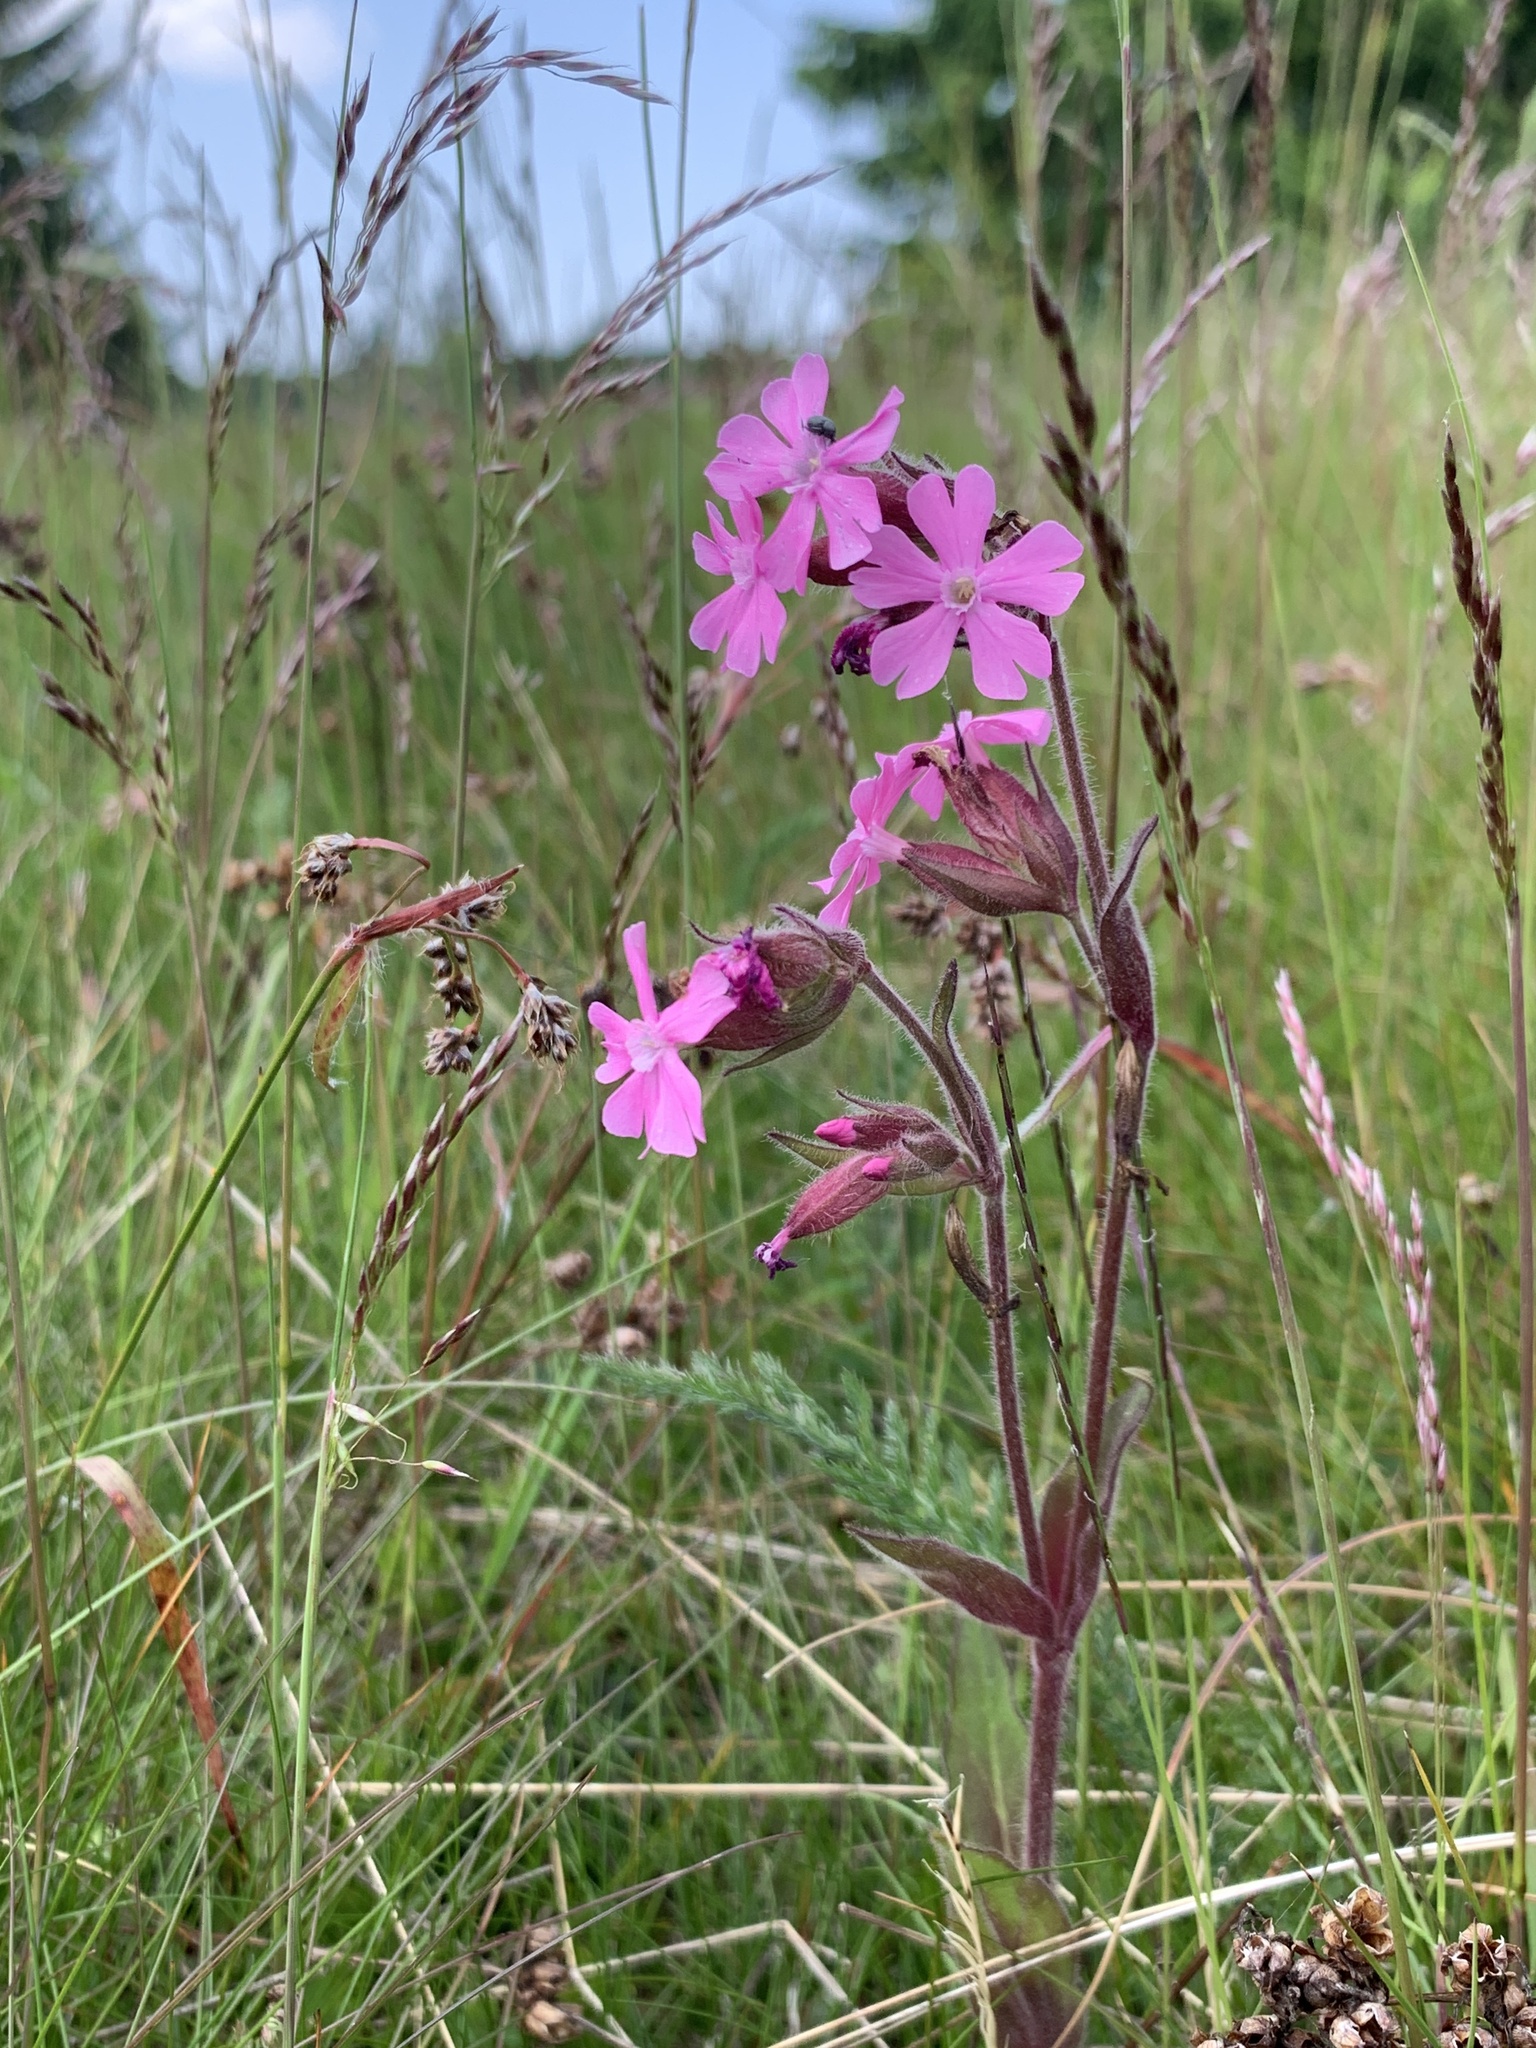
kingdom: Plantae
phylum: Tracheophyta
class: Magnoliopsida
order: Caryophyllales
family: Caryophyllaceae
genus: Silene
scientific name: Silene dioica
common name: Red campion
